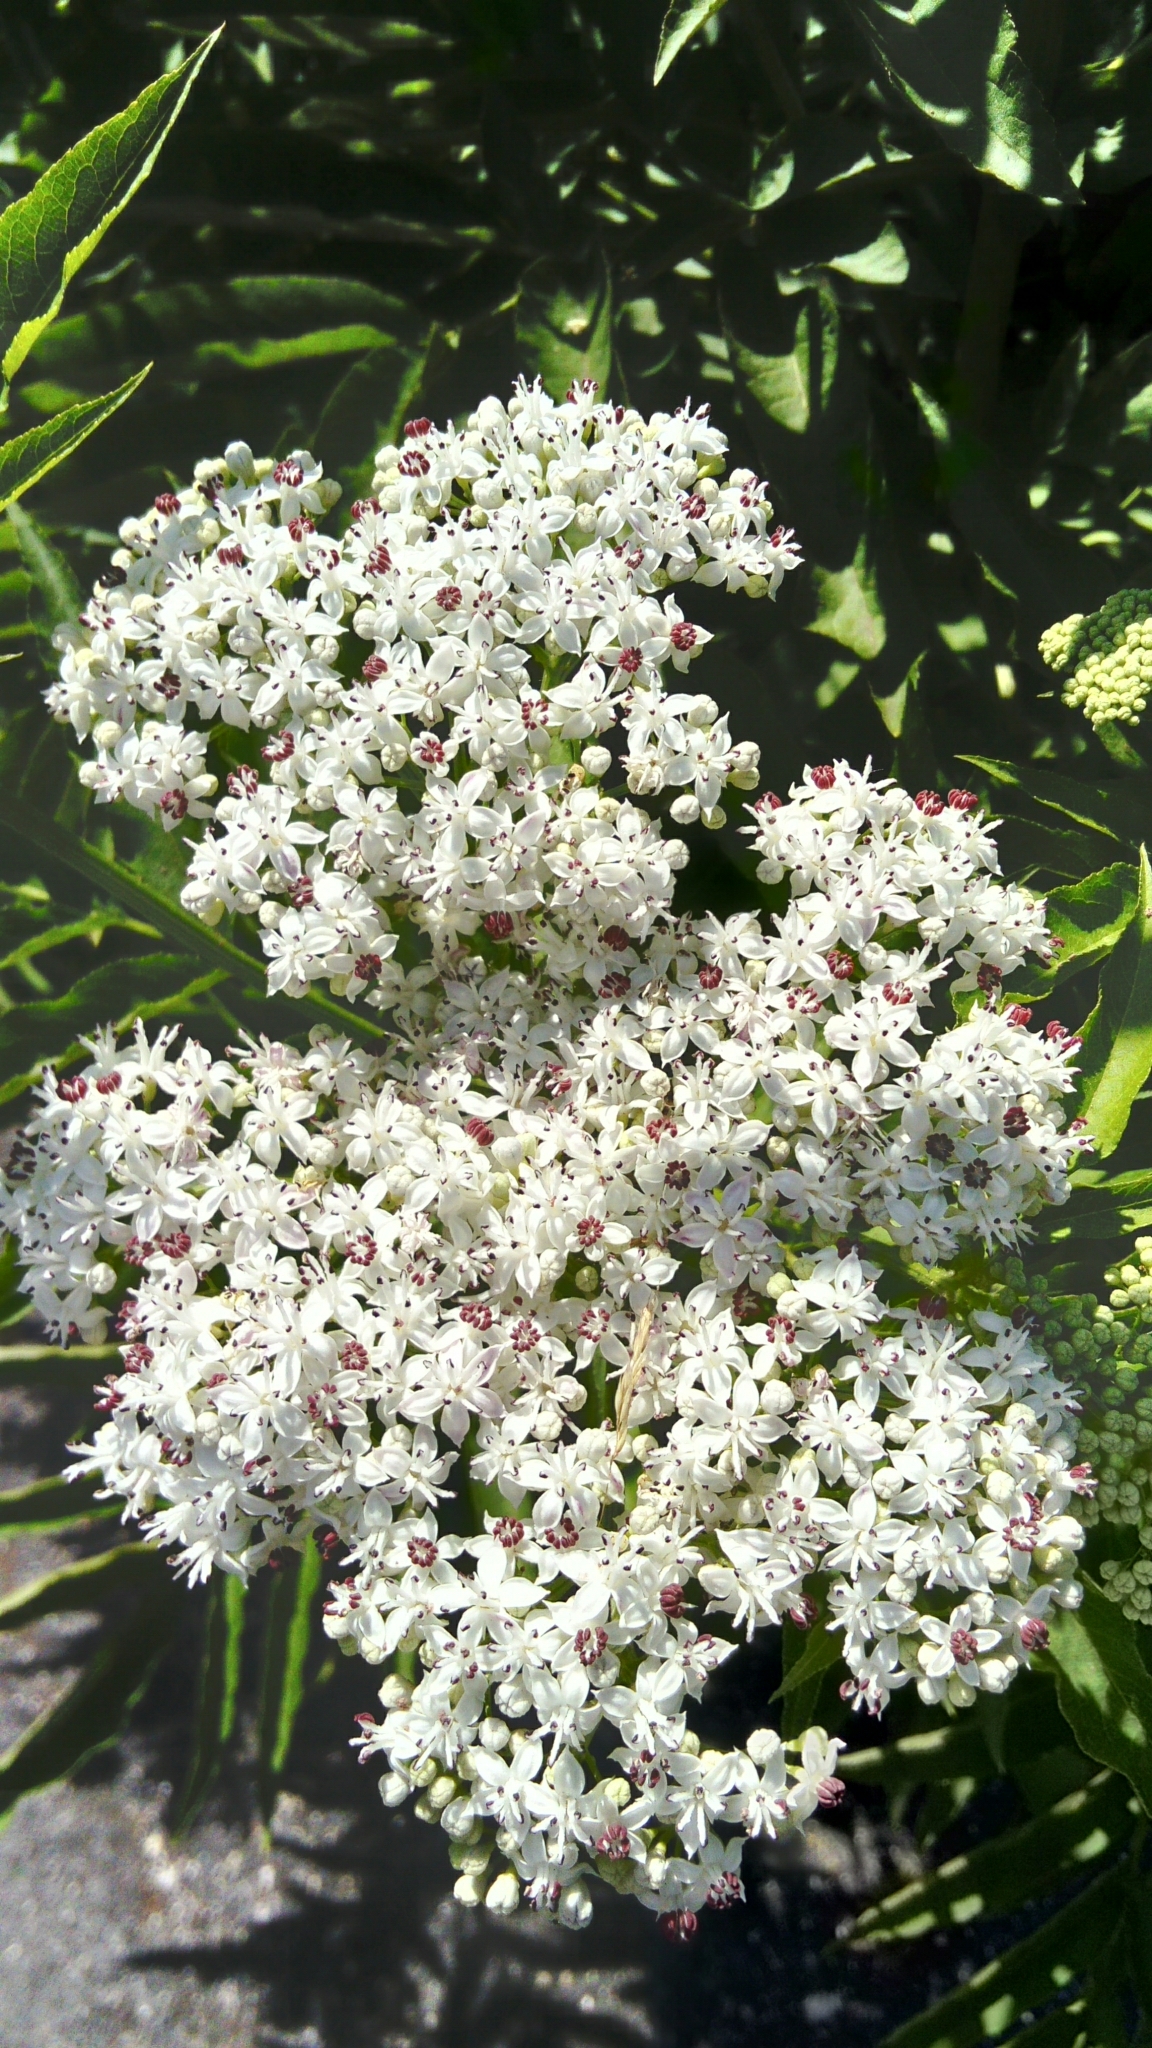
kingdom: Plantae
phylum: Tracheophyta
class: Magnoliopsida
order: Dipsacales
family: Viburnaceae
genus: Sambucus
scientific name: Sambucus ebulus
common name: Dwarf elder
